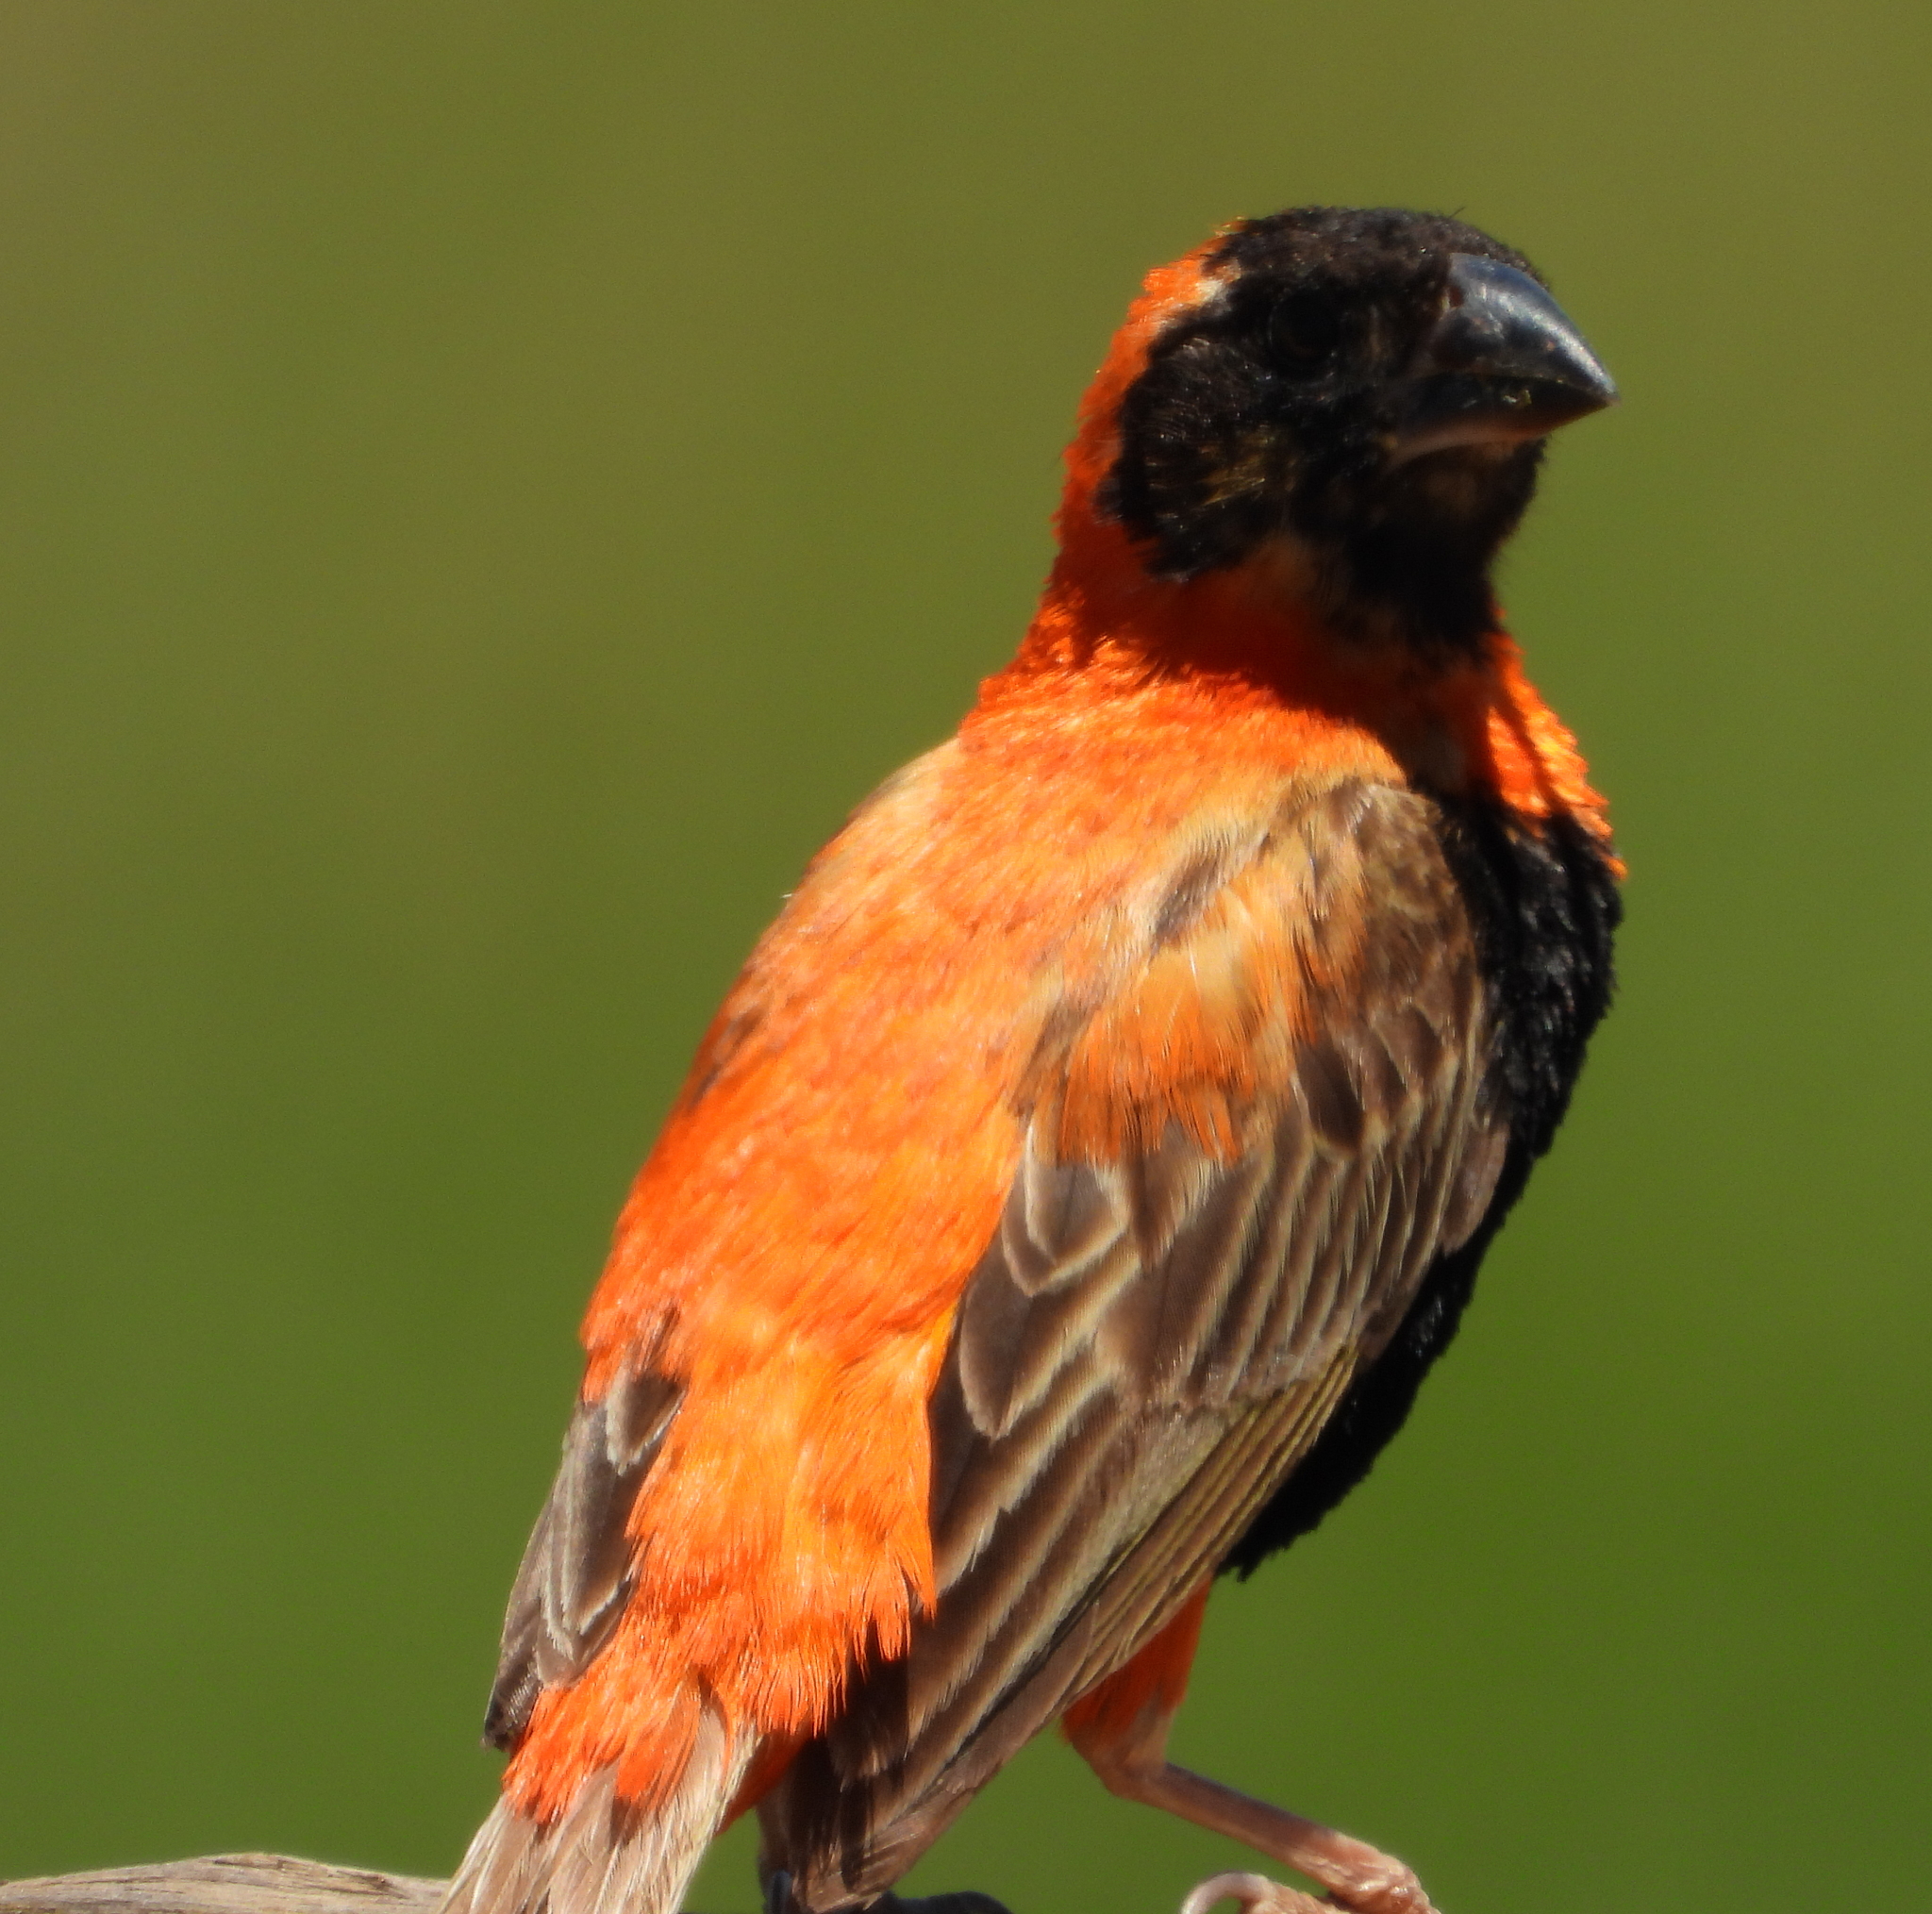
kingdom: Animalia
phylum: Chordata
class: Aves
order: Passeriformes
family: Ploceidae
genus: Euplectes
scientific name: Euplectes orix
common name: Southern red bishop
